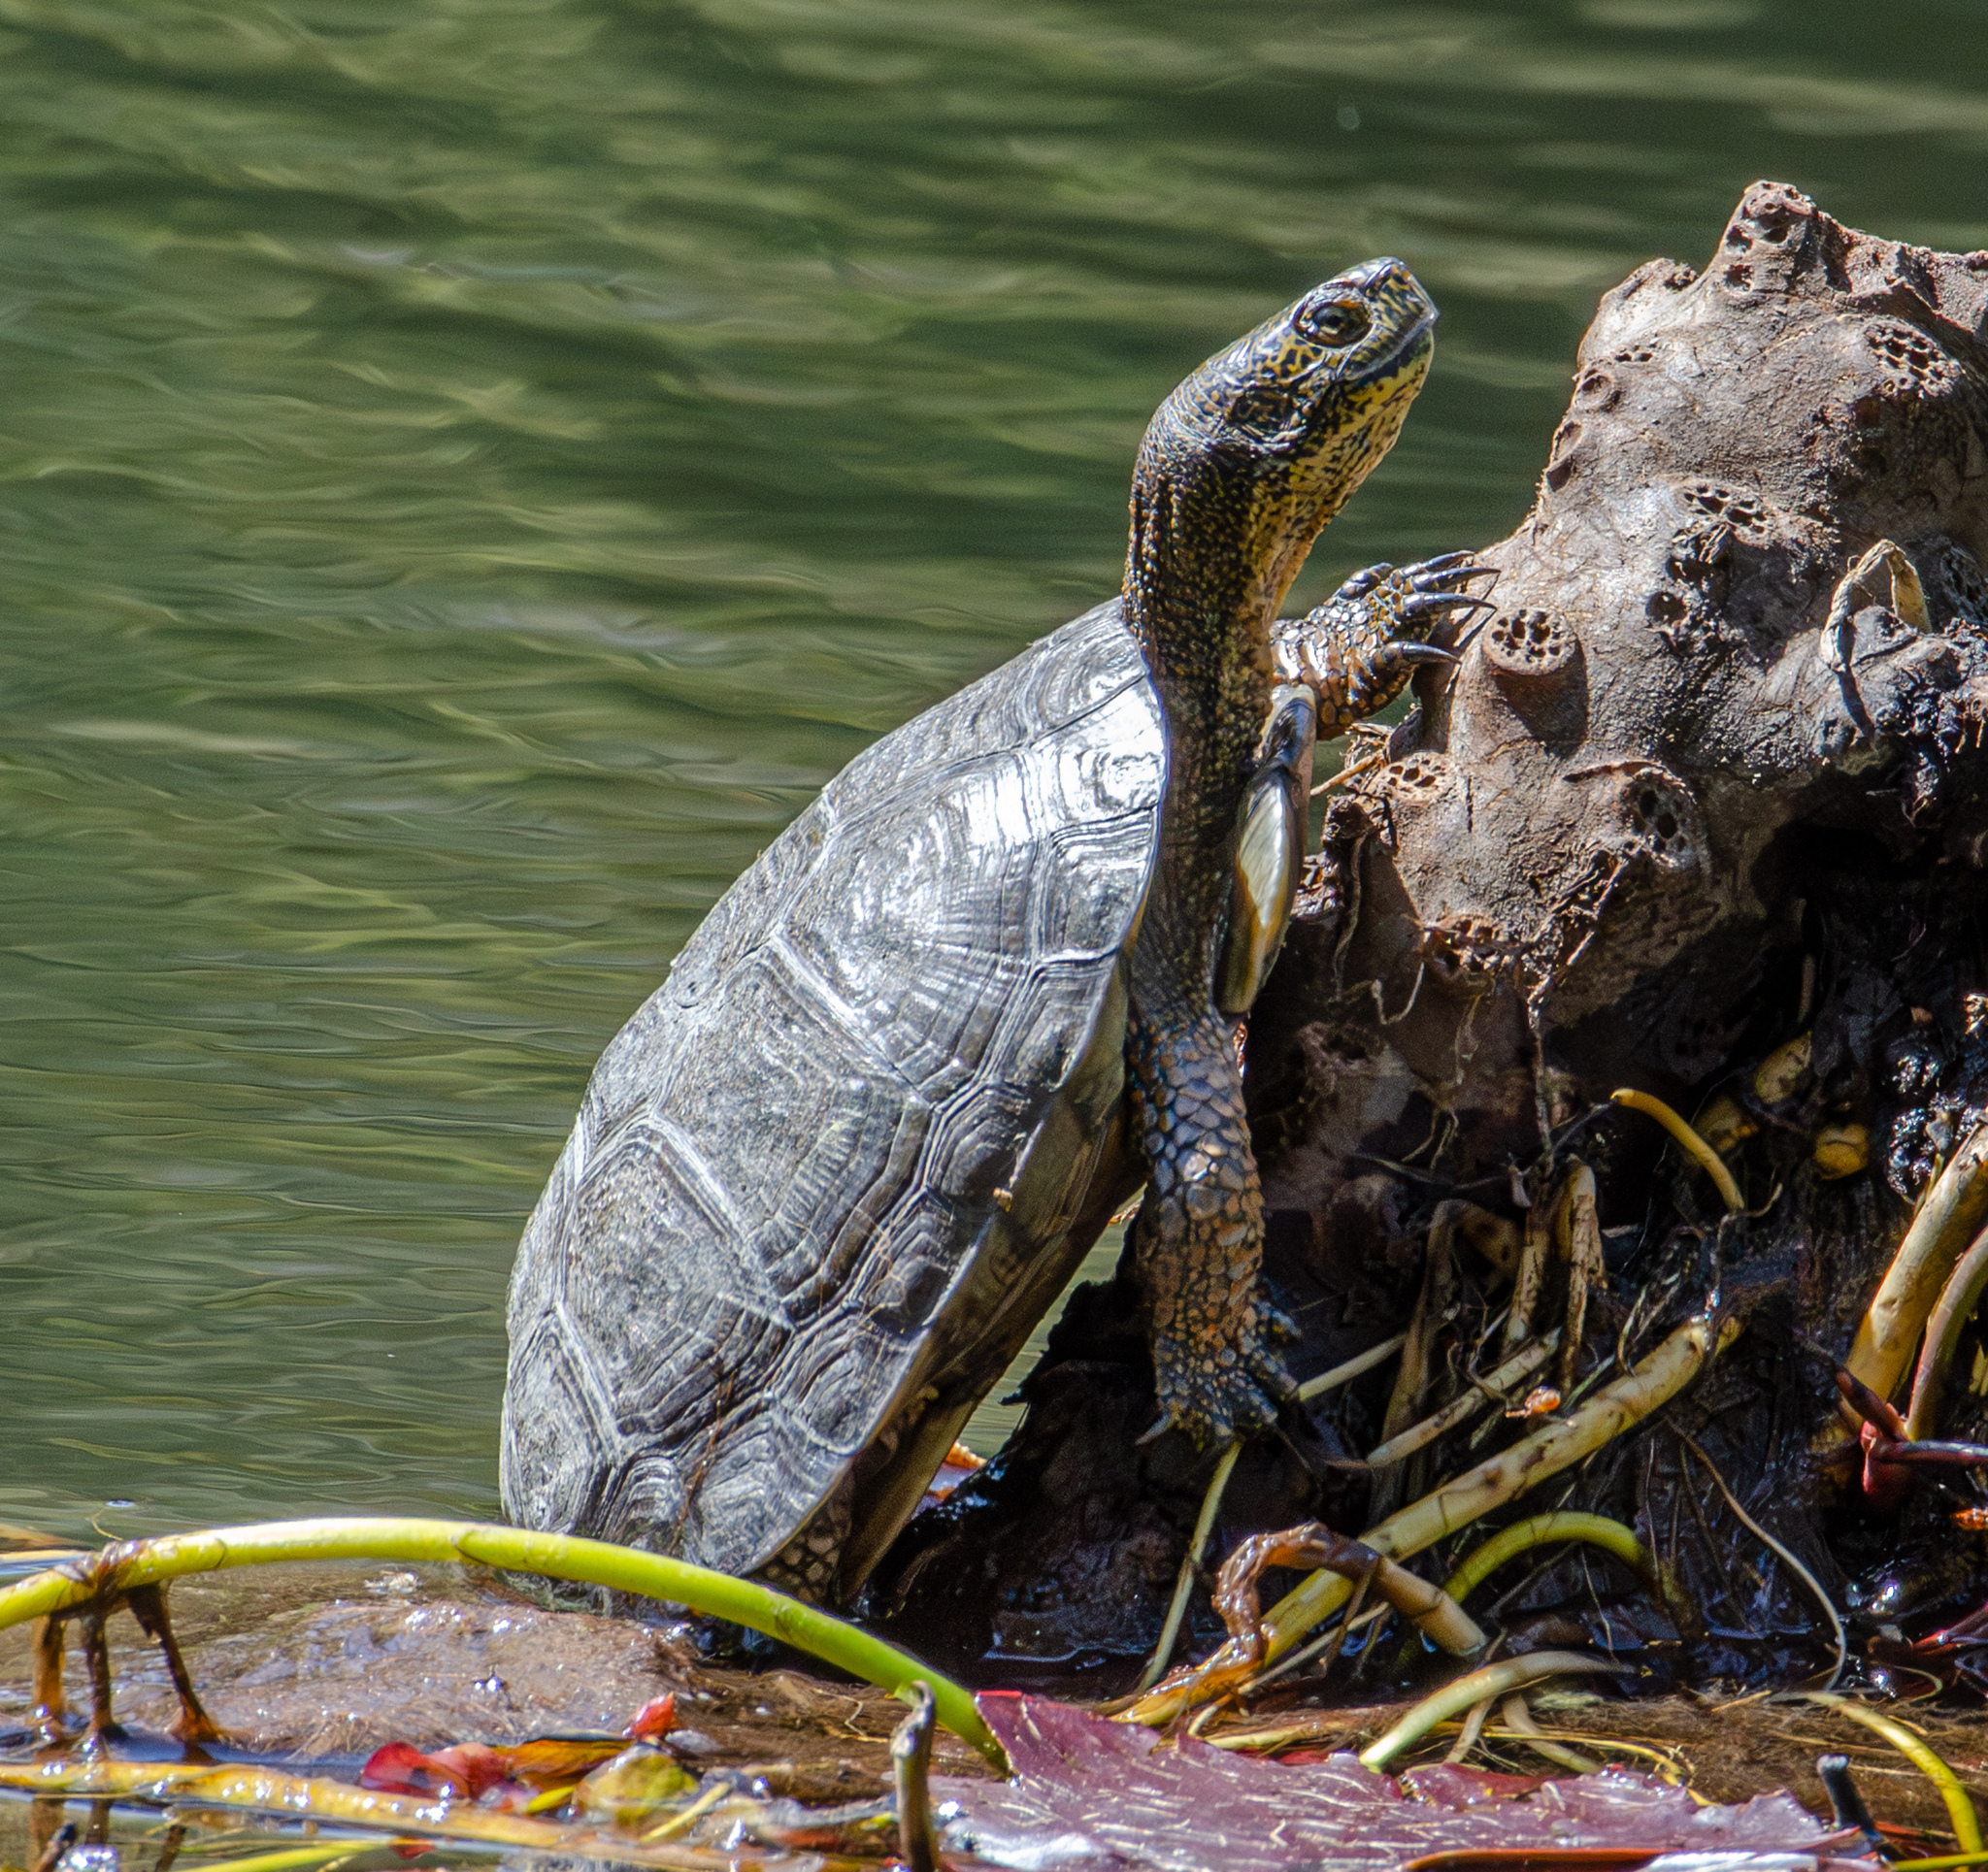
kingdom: Animalia
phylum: Chordata
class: Testudines
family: Emydidae
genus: Actinemys
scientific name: Actinemys marmorata
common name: Western pond turtle
